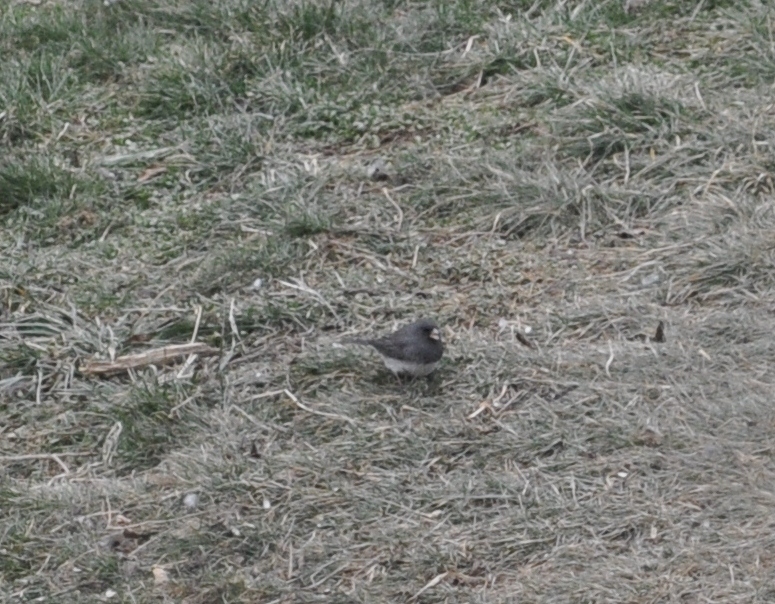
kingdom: Animalia
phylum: Chordata
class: Aves
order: Passeriformes
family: Passerellidae
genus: Junco
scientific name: Junco hyemalis
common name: Dark-eyed junco
